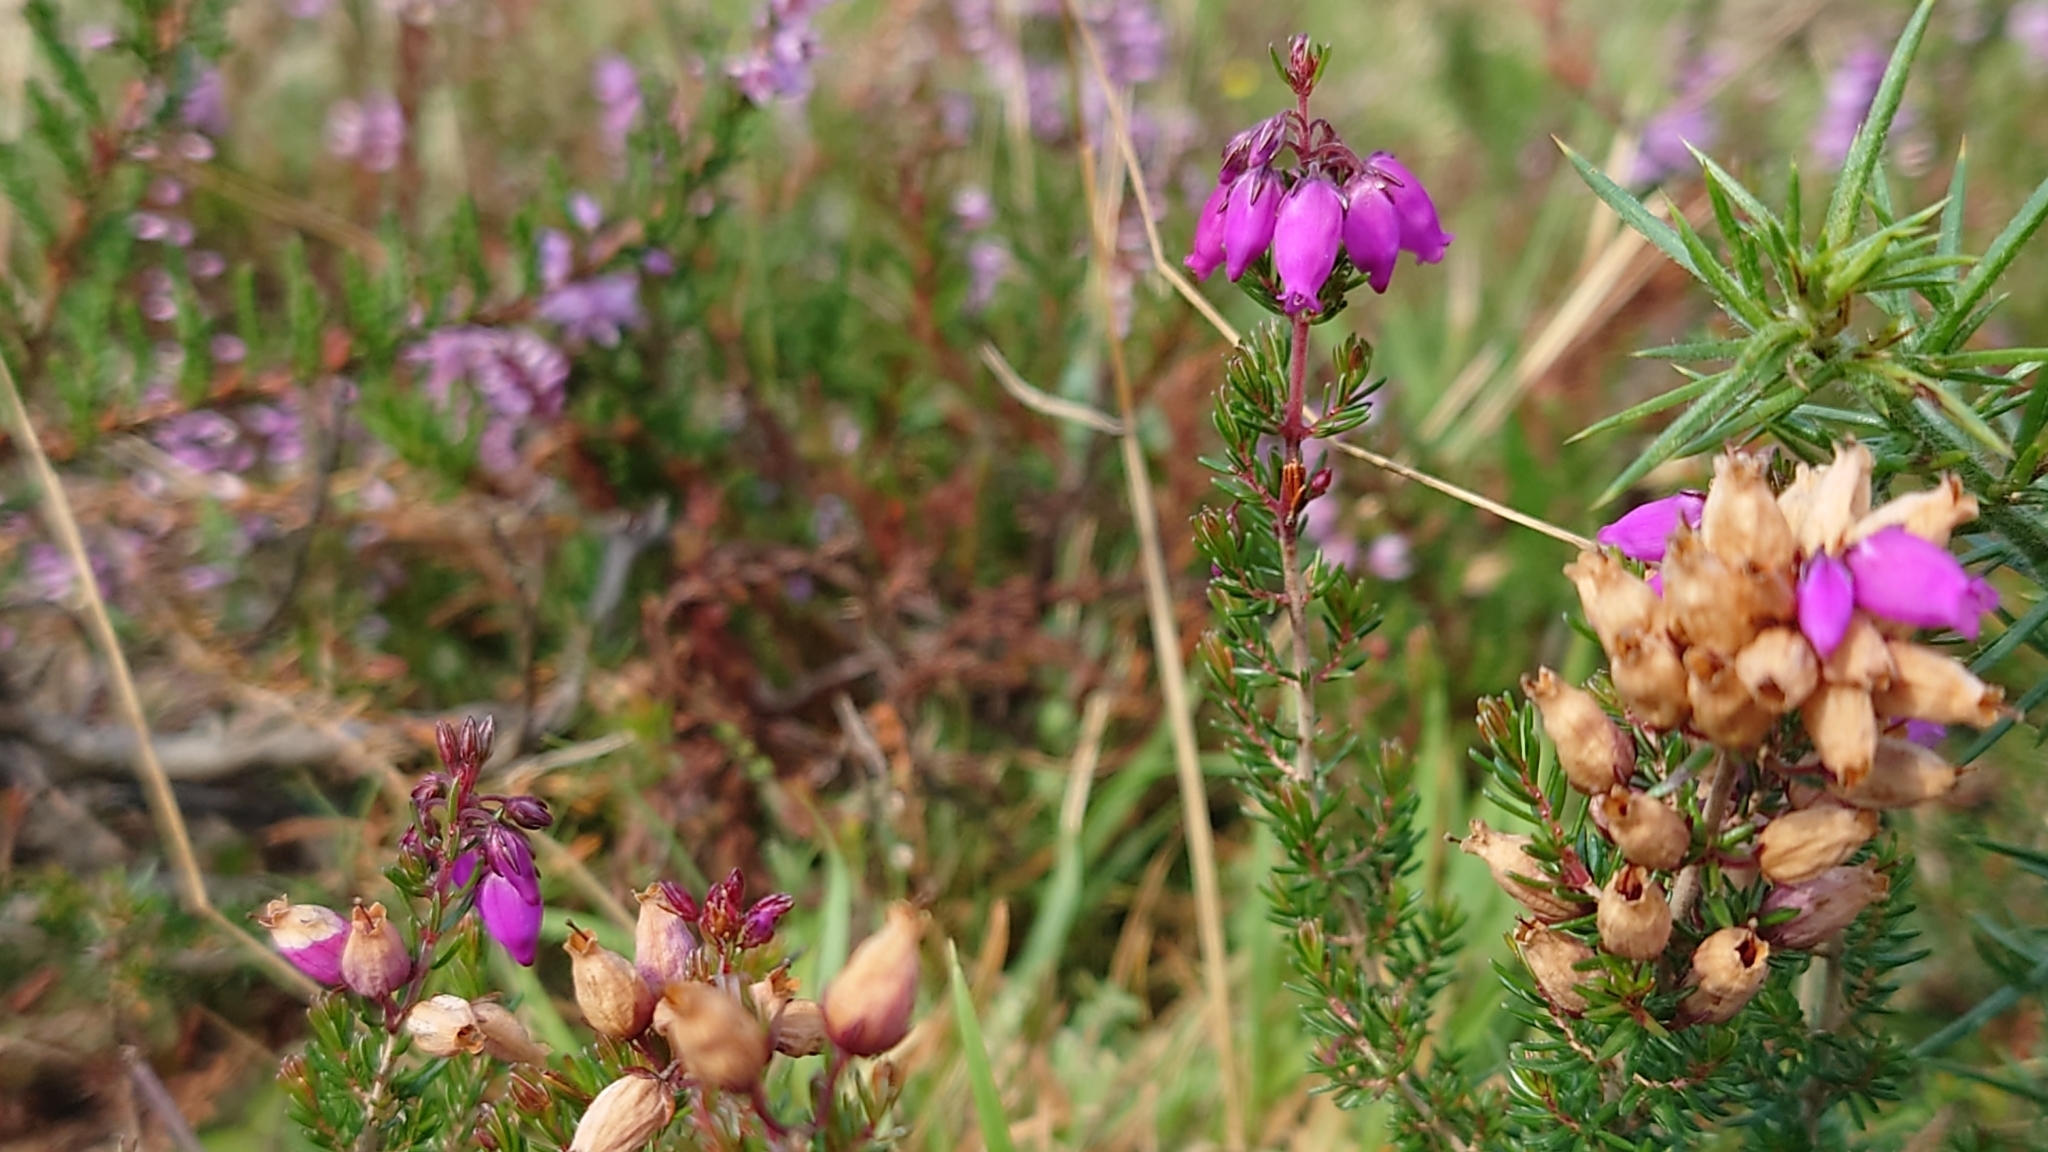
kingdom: Plantae
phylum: Tracheophyta
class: Magnoliopsida
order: Ericales
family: Ericaceae
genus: Erica
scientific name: Erica cinerea
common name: Bell heather
